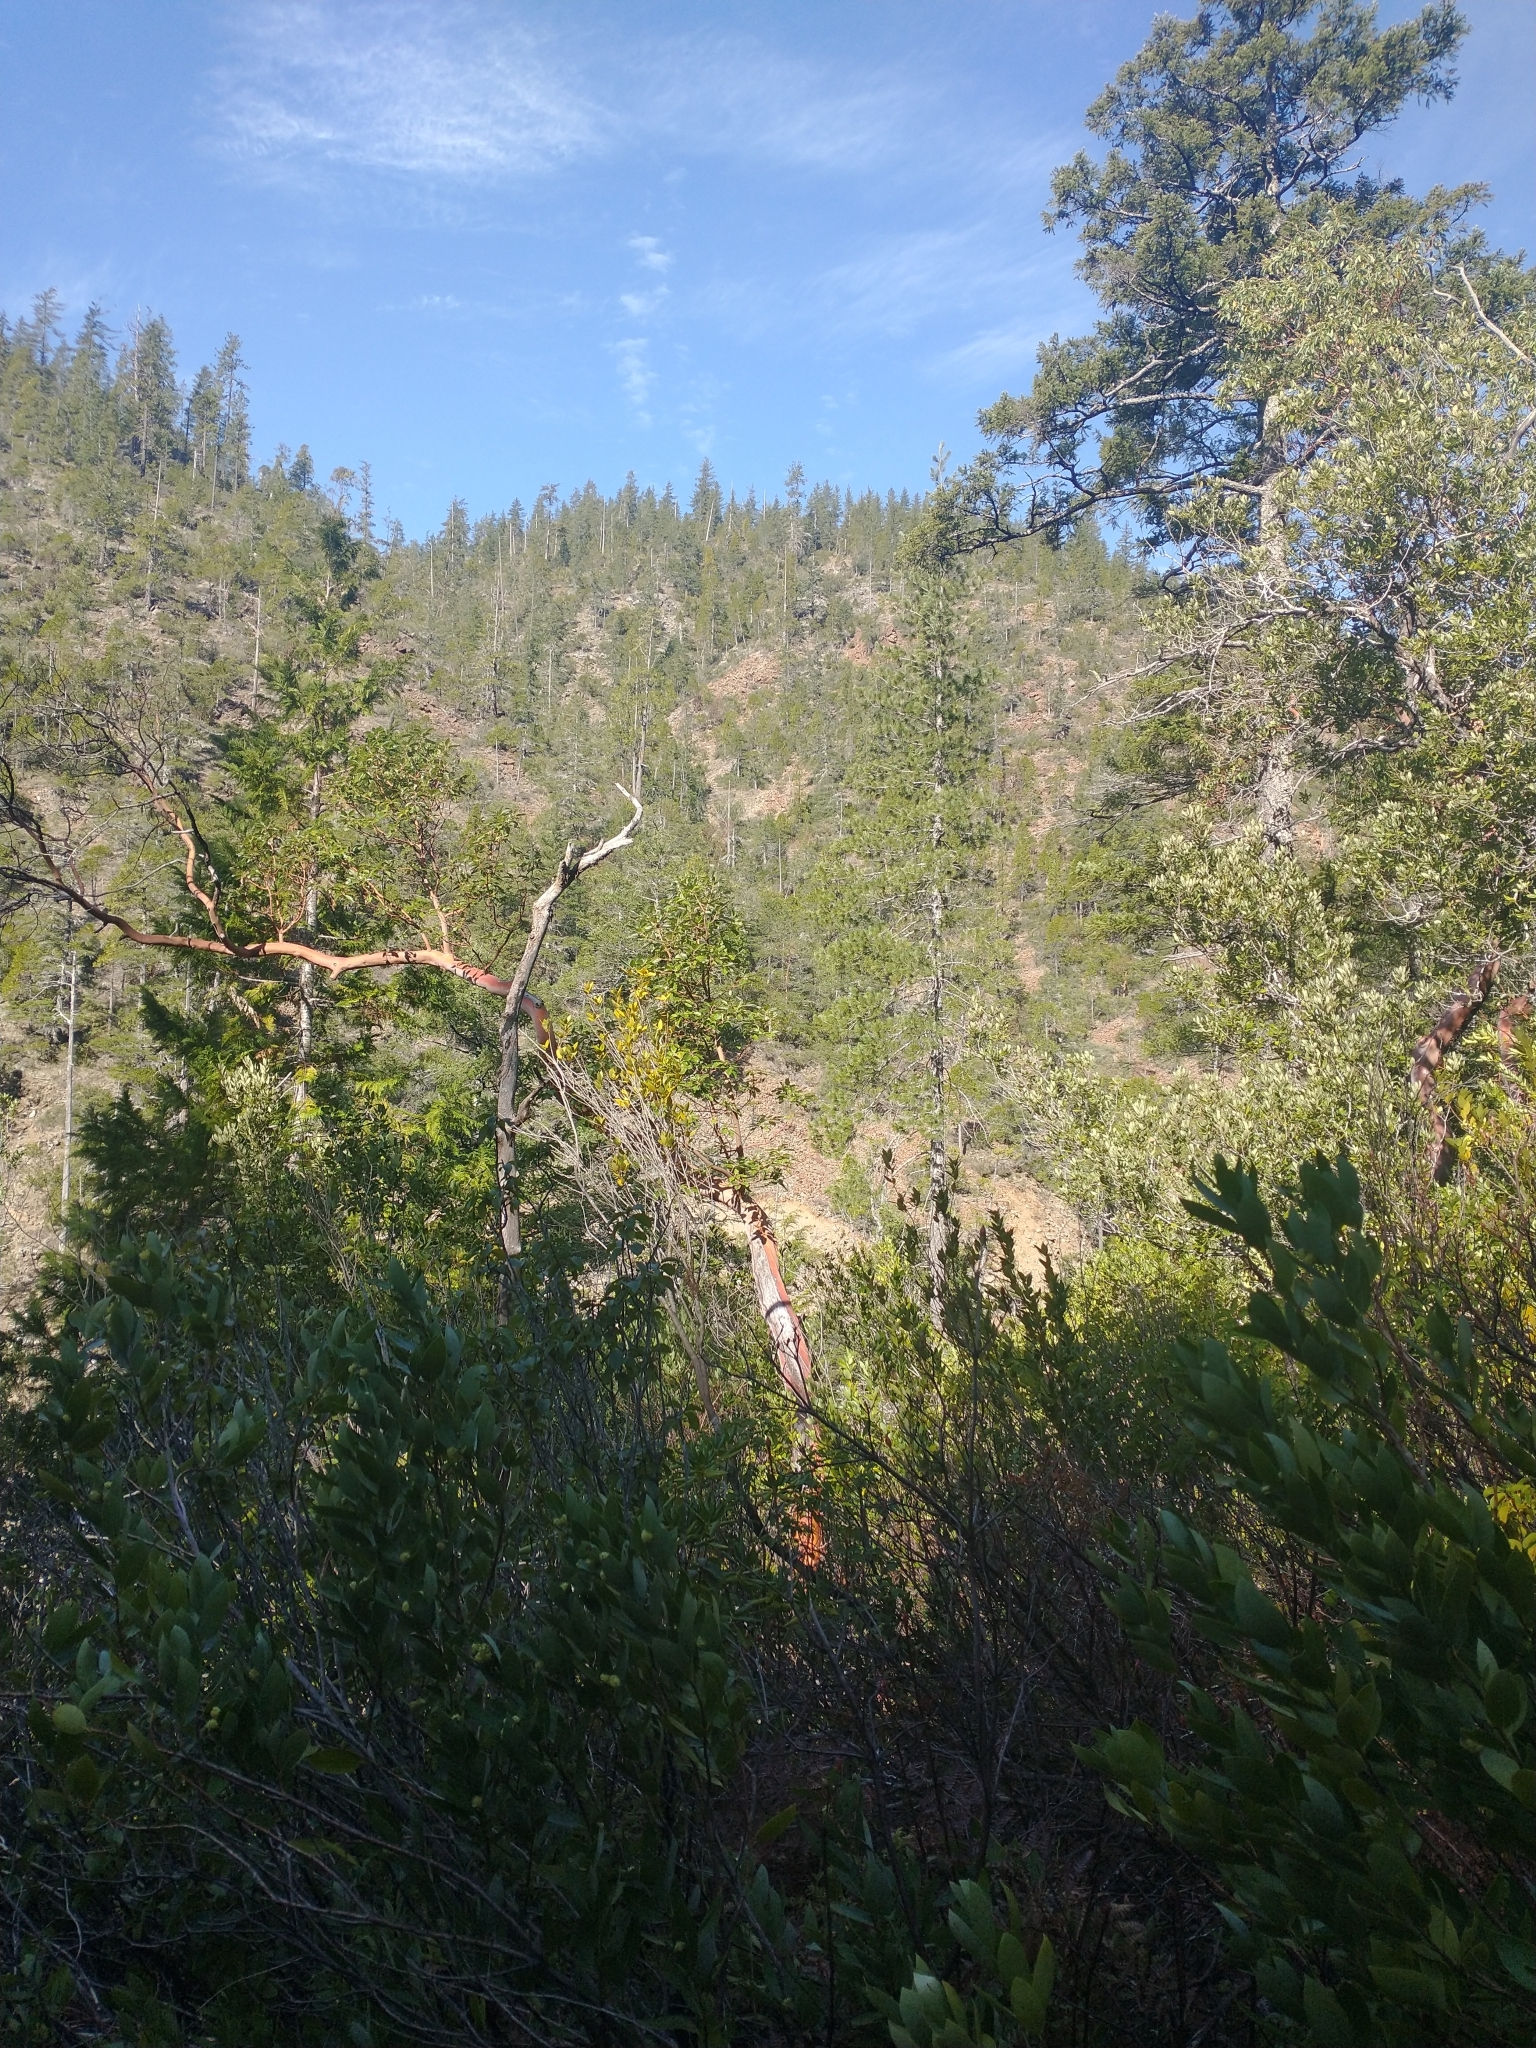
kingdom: Plantae
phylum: Tracheophyta
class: Magnoliopsida
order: Ericales
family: Ericaceae
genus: Arbutus
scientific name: Arbutus menziesii
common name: Pacific madrone
